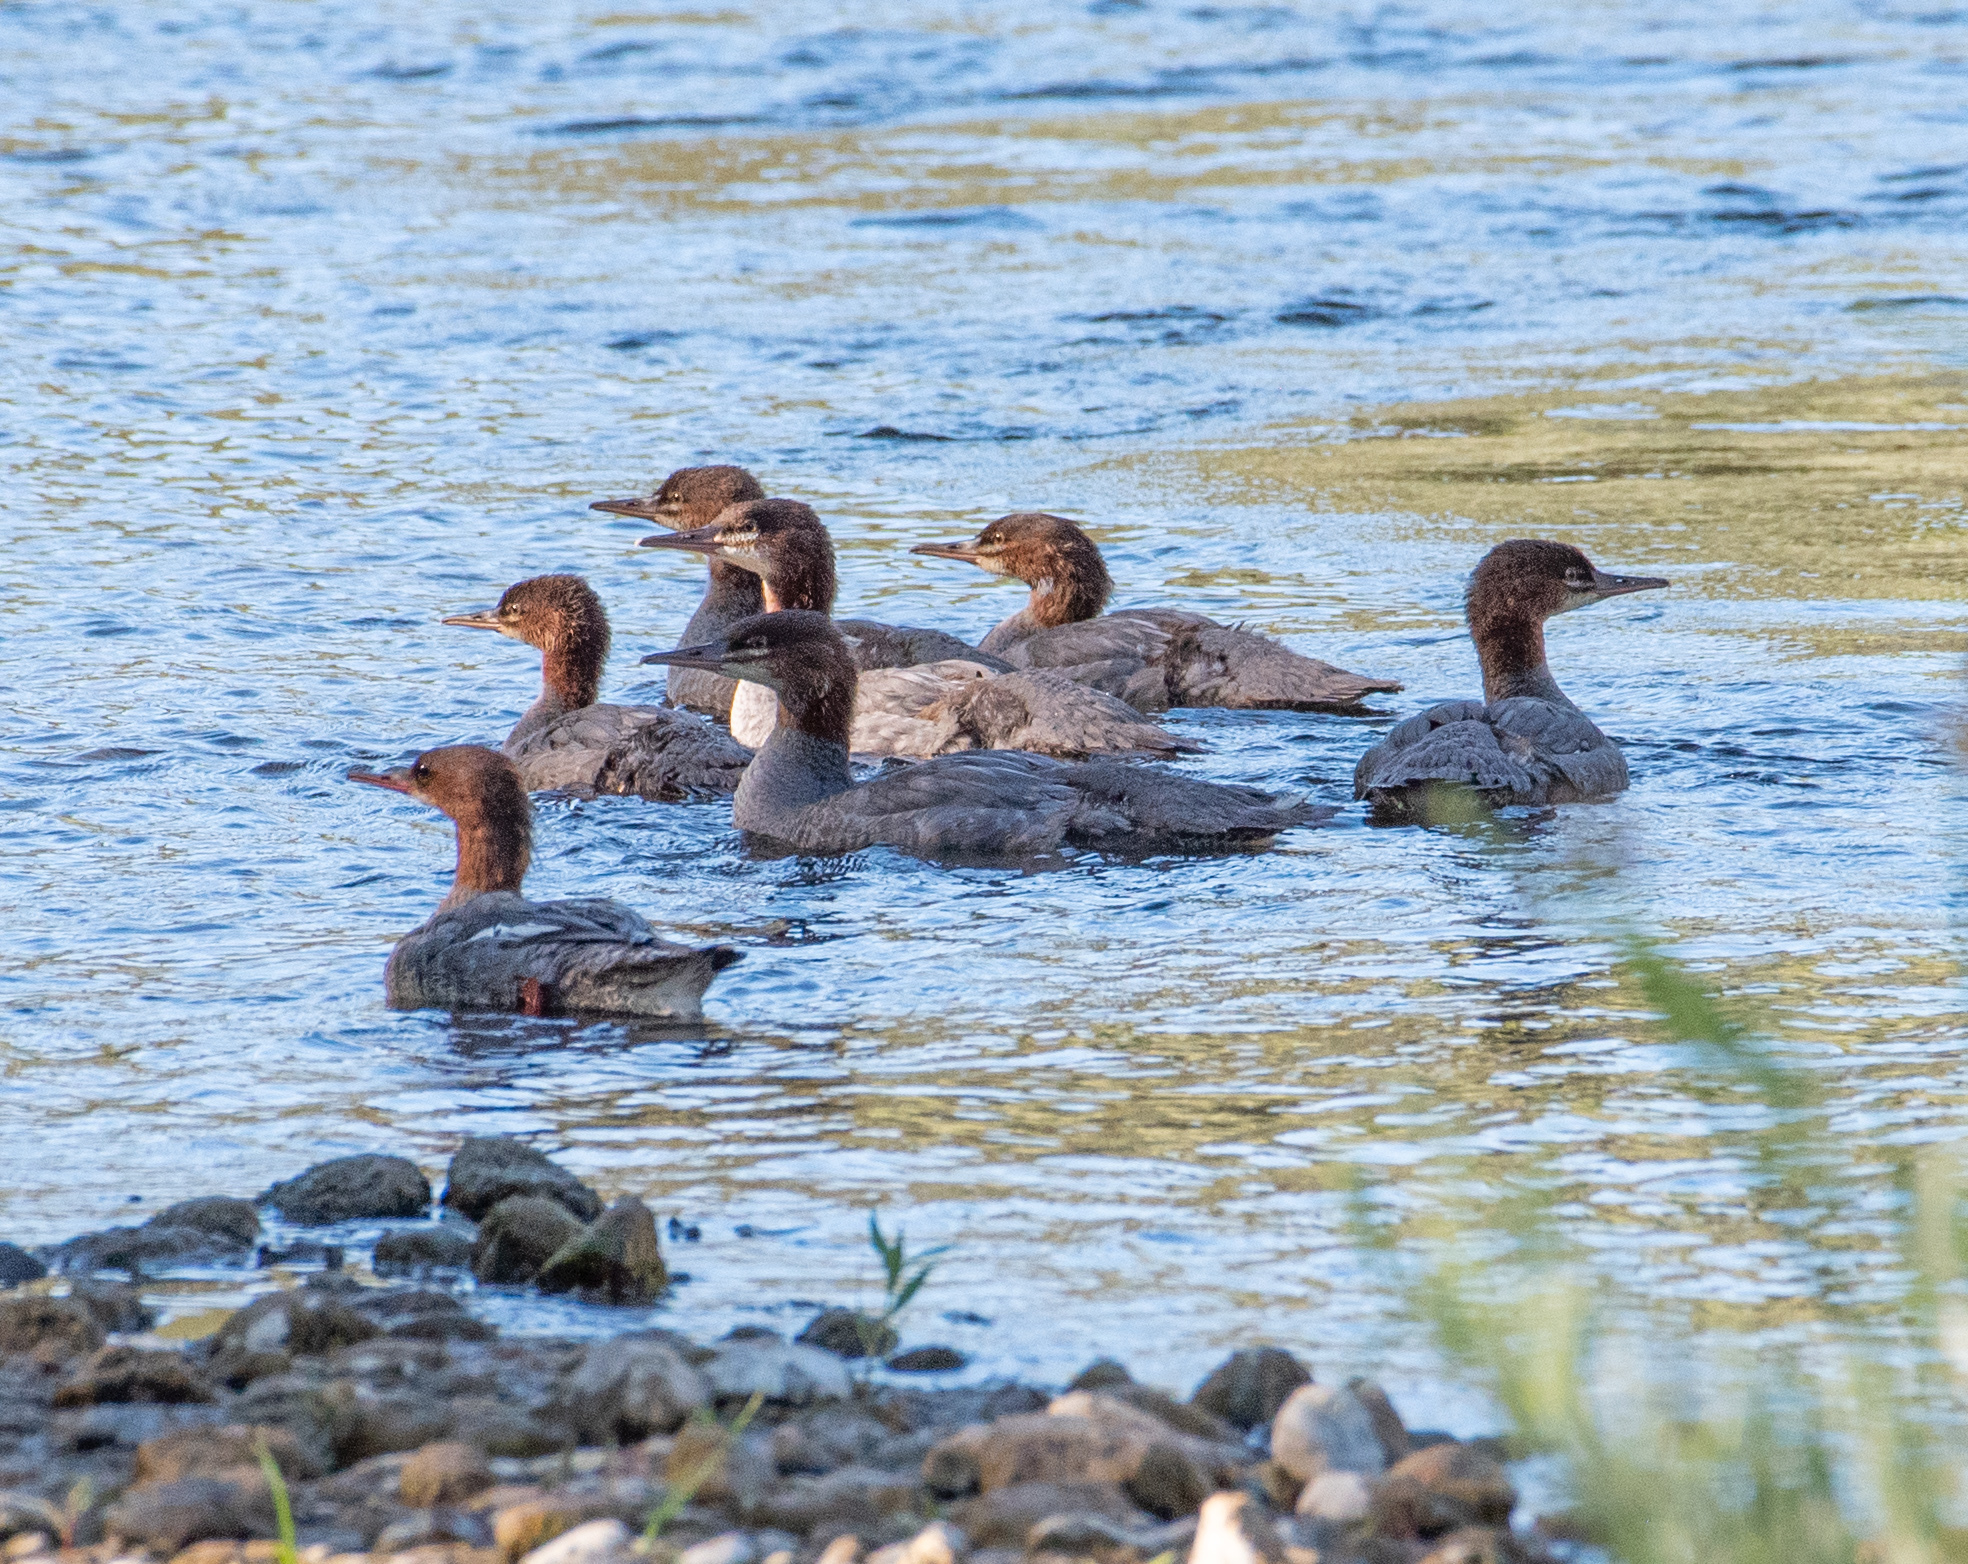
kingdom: Animalia
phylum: Chordata
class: Aves
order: Anseriformes
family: Anatidae
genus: Mergus
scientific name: Mergus merganser
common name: Common merganser
